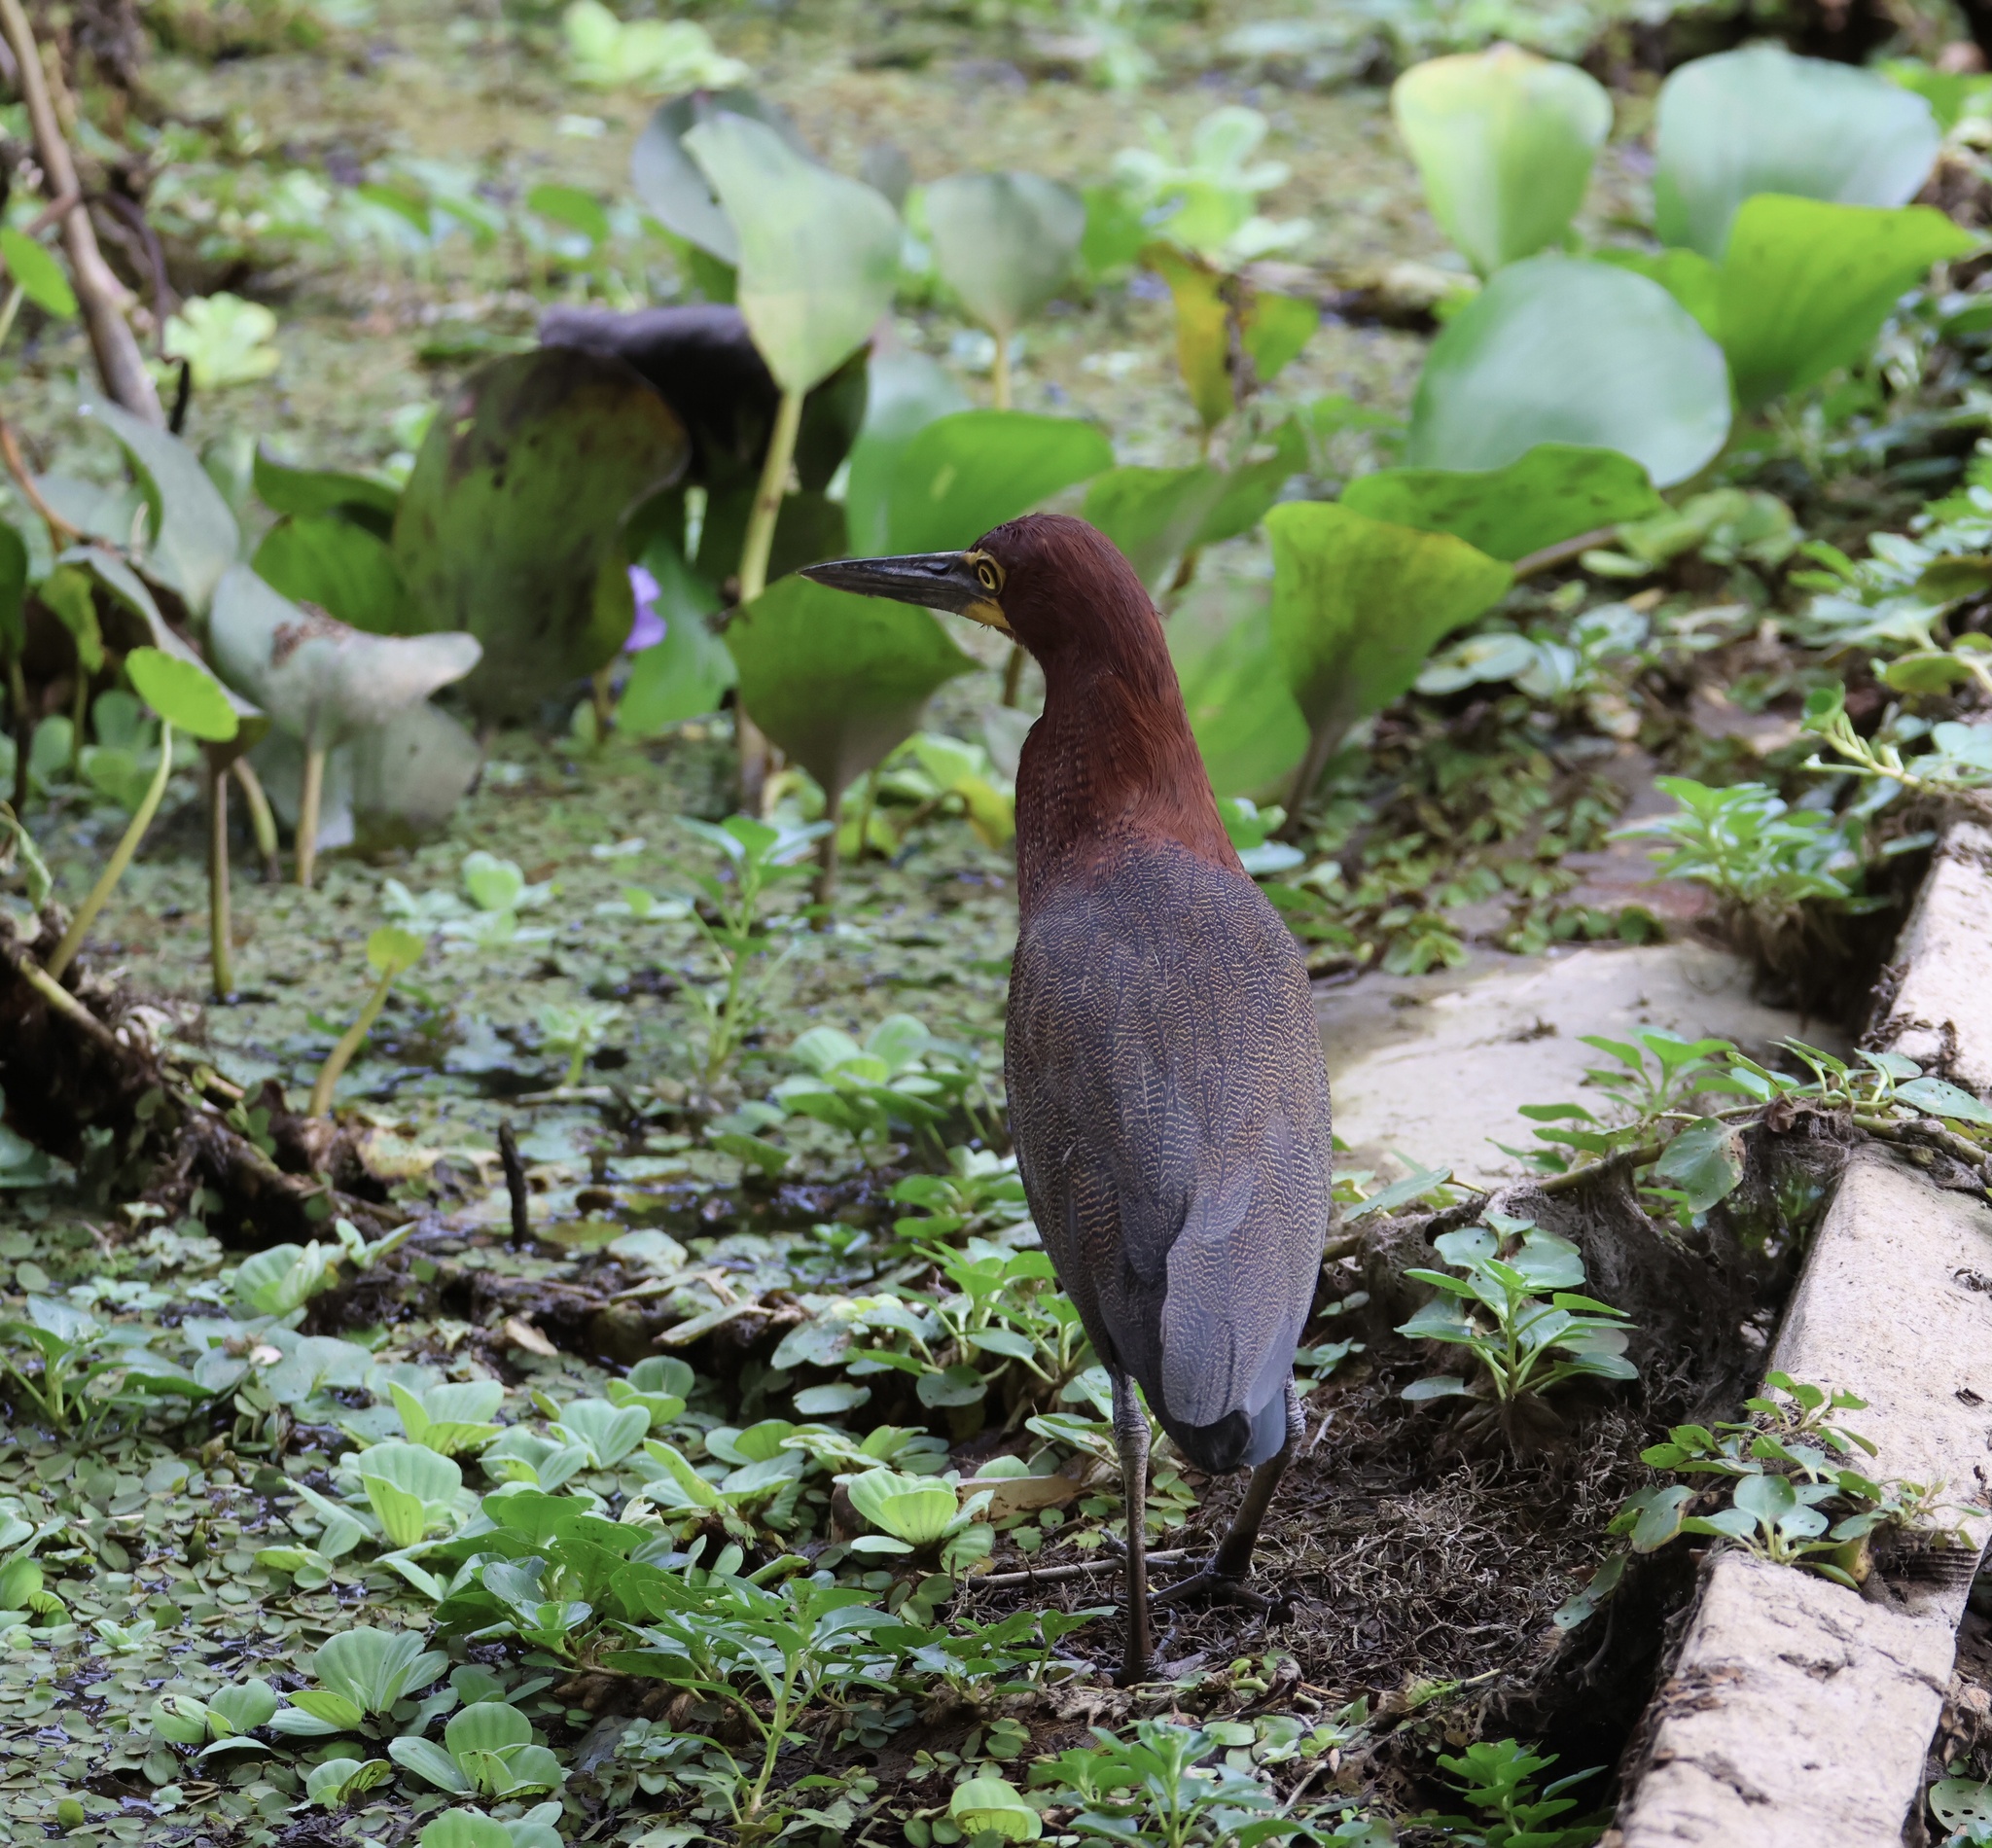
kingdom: Animalia
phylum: Chordata
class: Aves
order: Pelecaniformes
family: Ardeidae
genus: Tigrisoma
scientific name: Tigrisoma lineatum
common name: Rufescent tiger-heron
